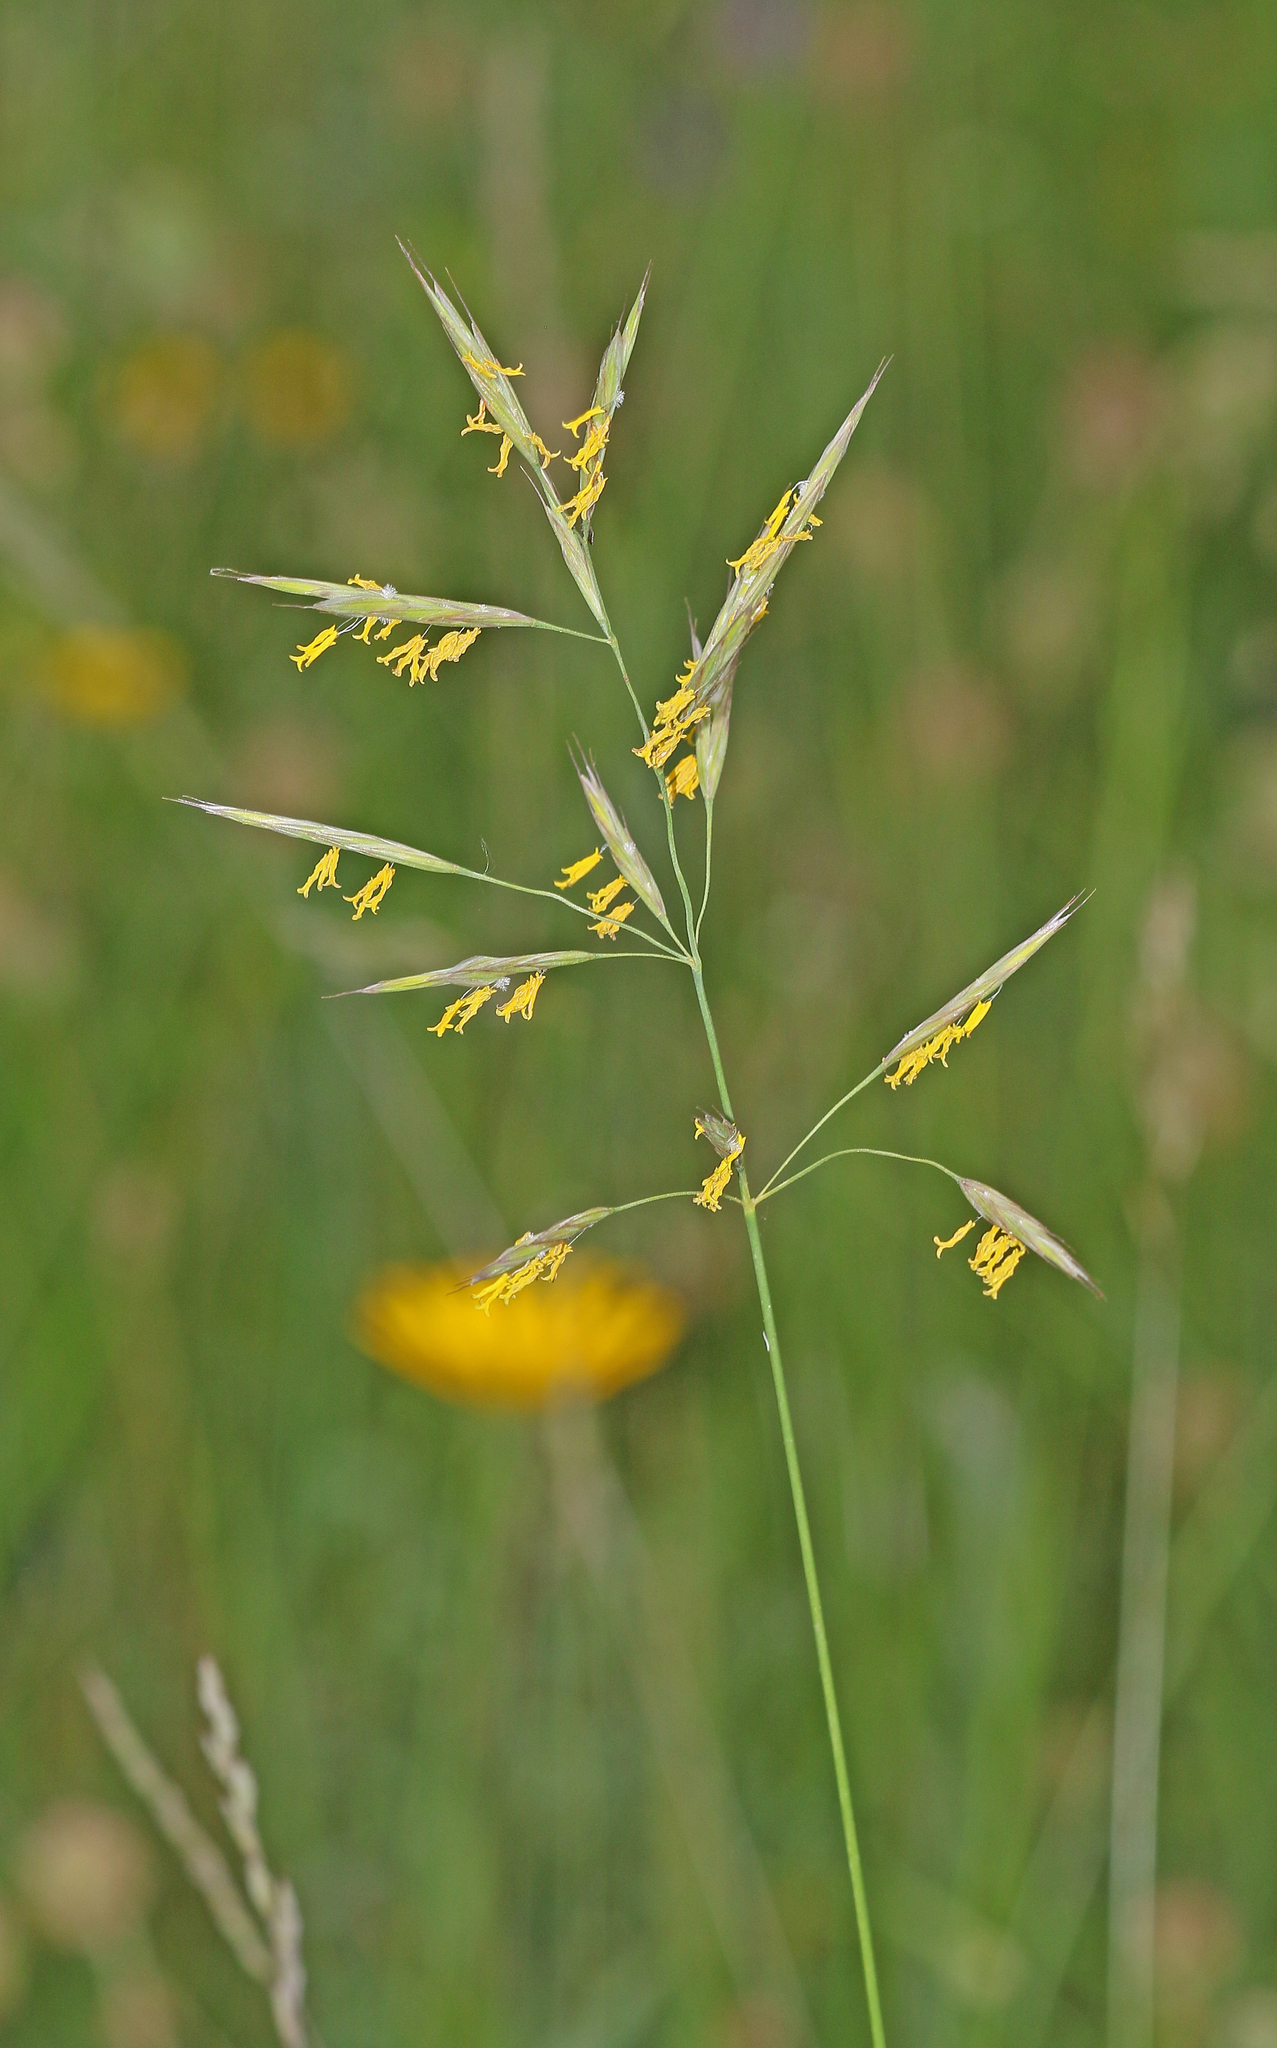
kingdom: Plantae
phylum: Tracheophyta
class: Liliopsida
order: Poales
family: Poaceae
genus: Bromus
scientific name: Bromus erectus
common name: Erect brome
